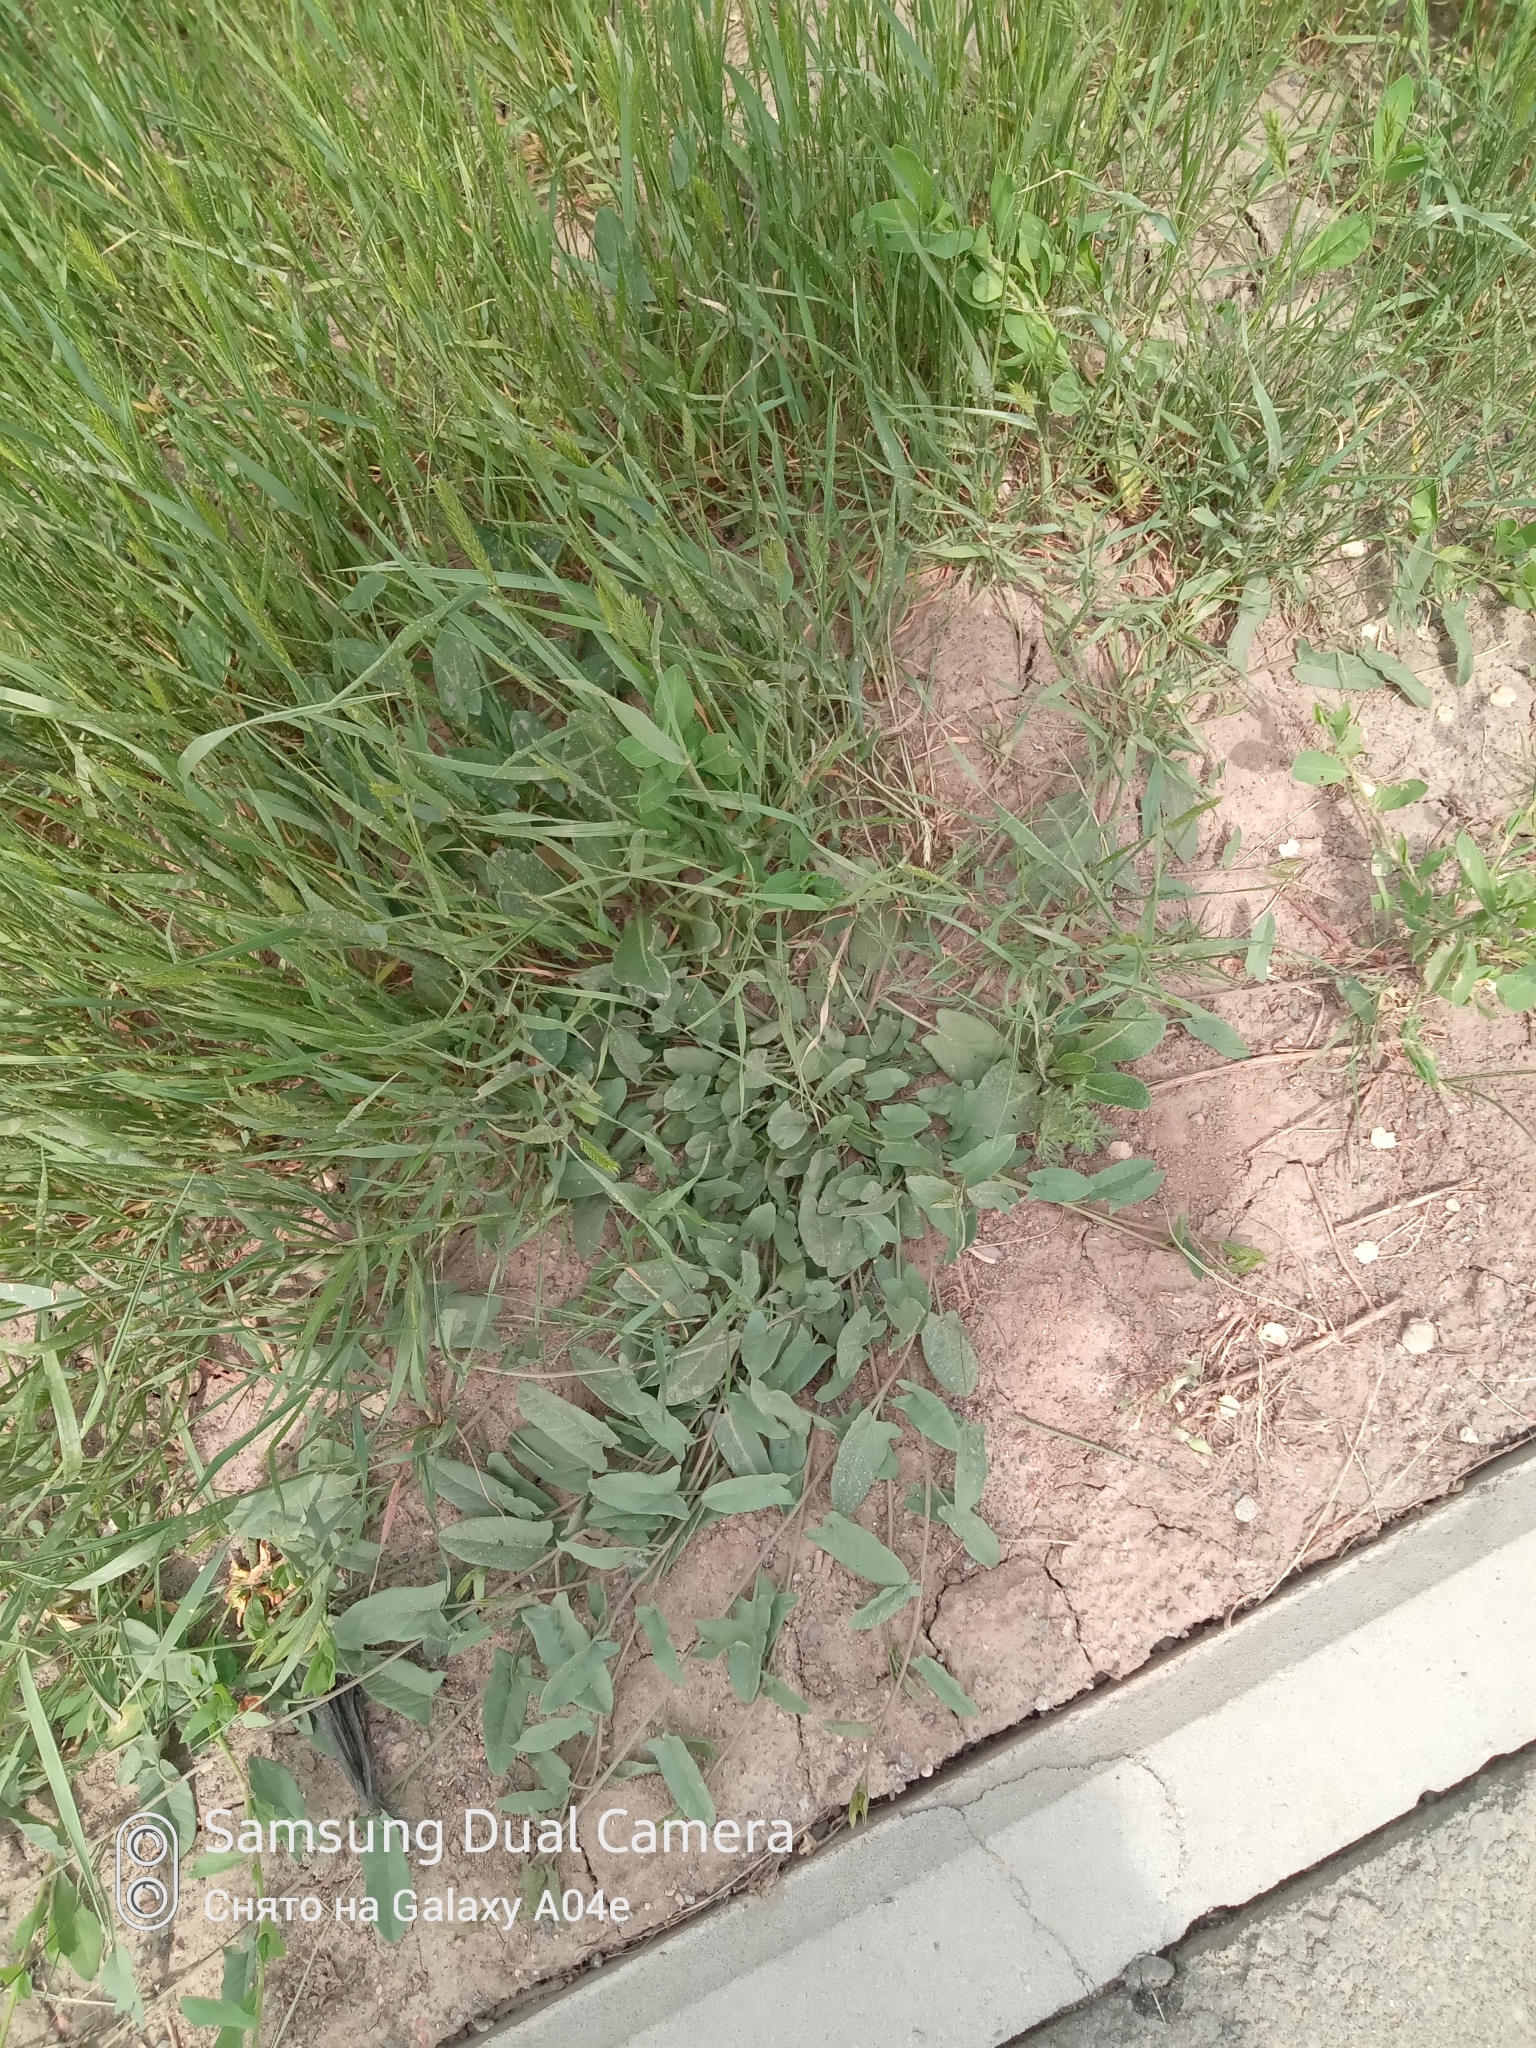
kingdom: Plantae
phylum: Tracheophyta
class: Magnoliopsida
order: Solanales
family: Convolvulaceae
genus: Convolvulus
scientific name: Convolvulus arvensis
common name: Field bindweed
